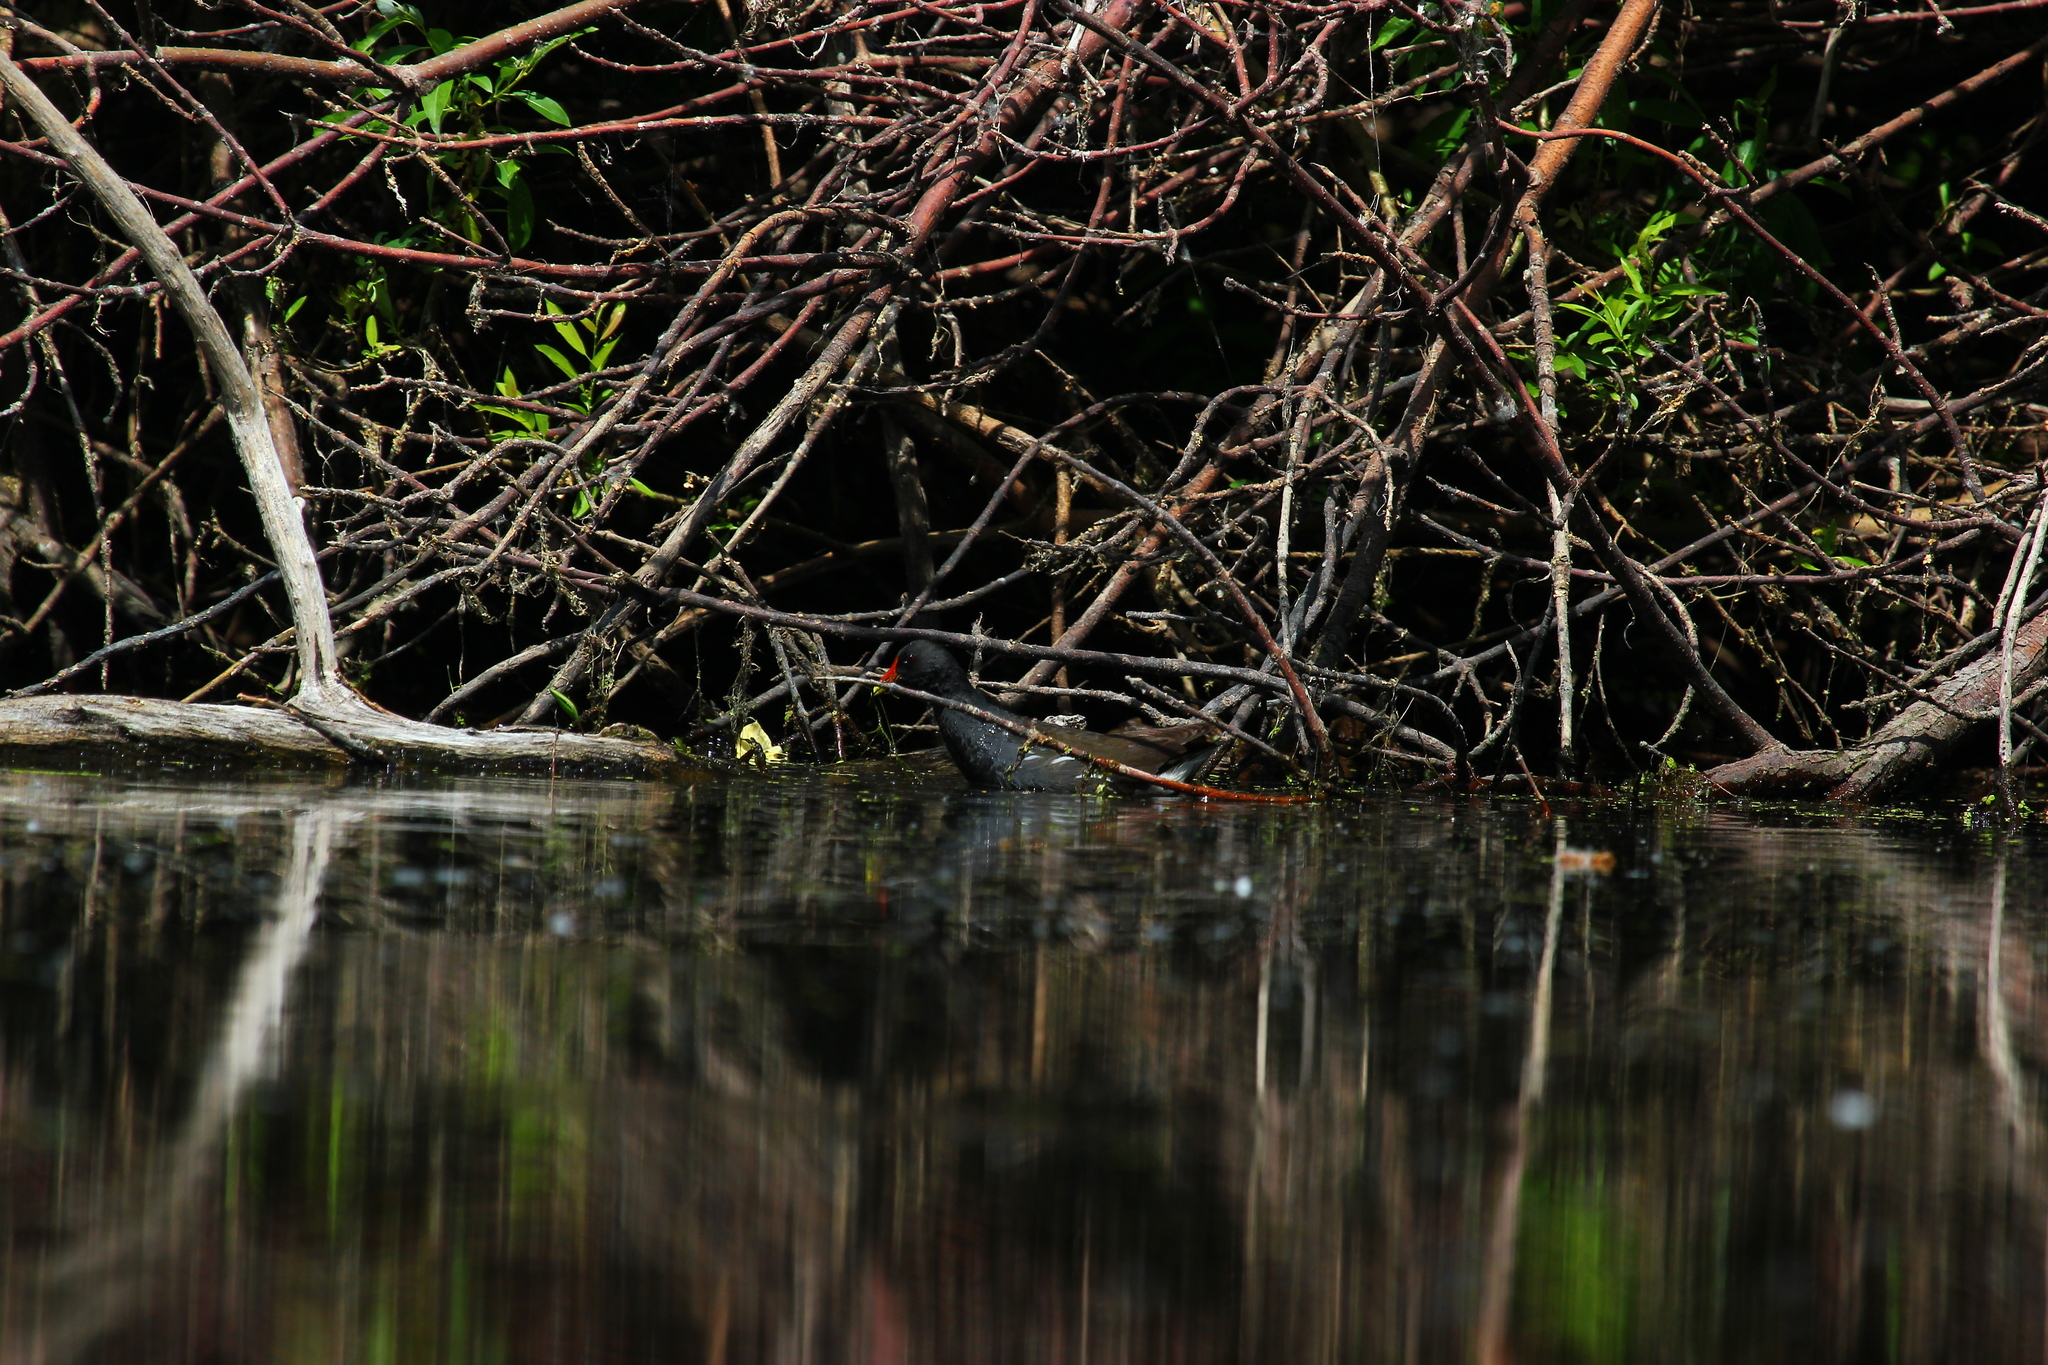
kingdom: Animalia
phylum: Chordata
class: Aves
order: Gruiformes
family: Rallidae
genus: Gallinula
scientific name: Gallinula chloropus
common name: Common moorhen
